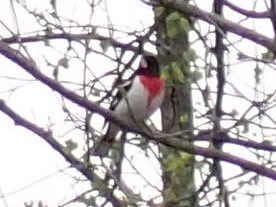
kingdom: Animalia
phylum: Chordata
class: Aves
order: Passeriformes
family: Cardinalidae
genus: Pheucticus
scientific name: Pheucticus ludovicianus
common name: Rose-breasted grosbeak
